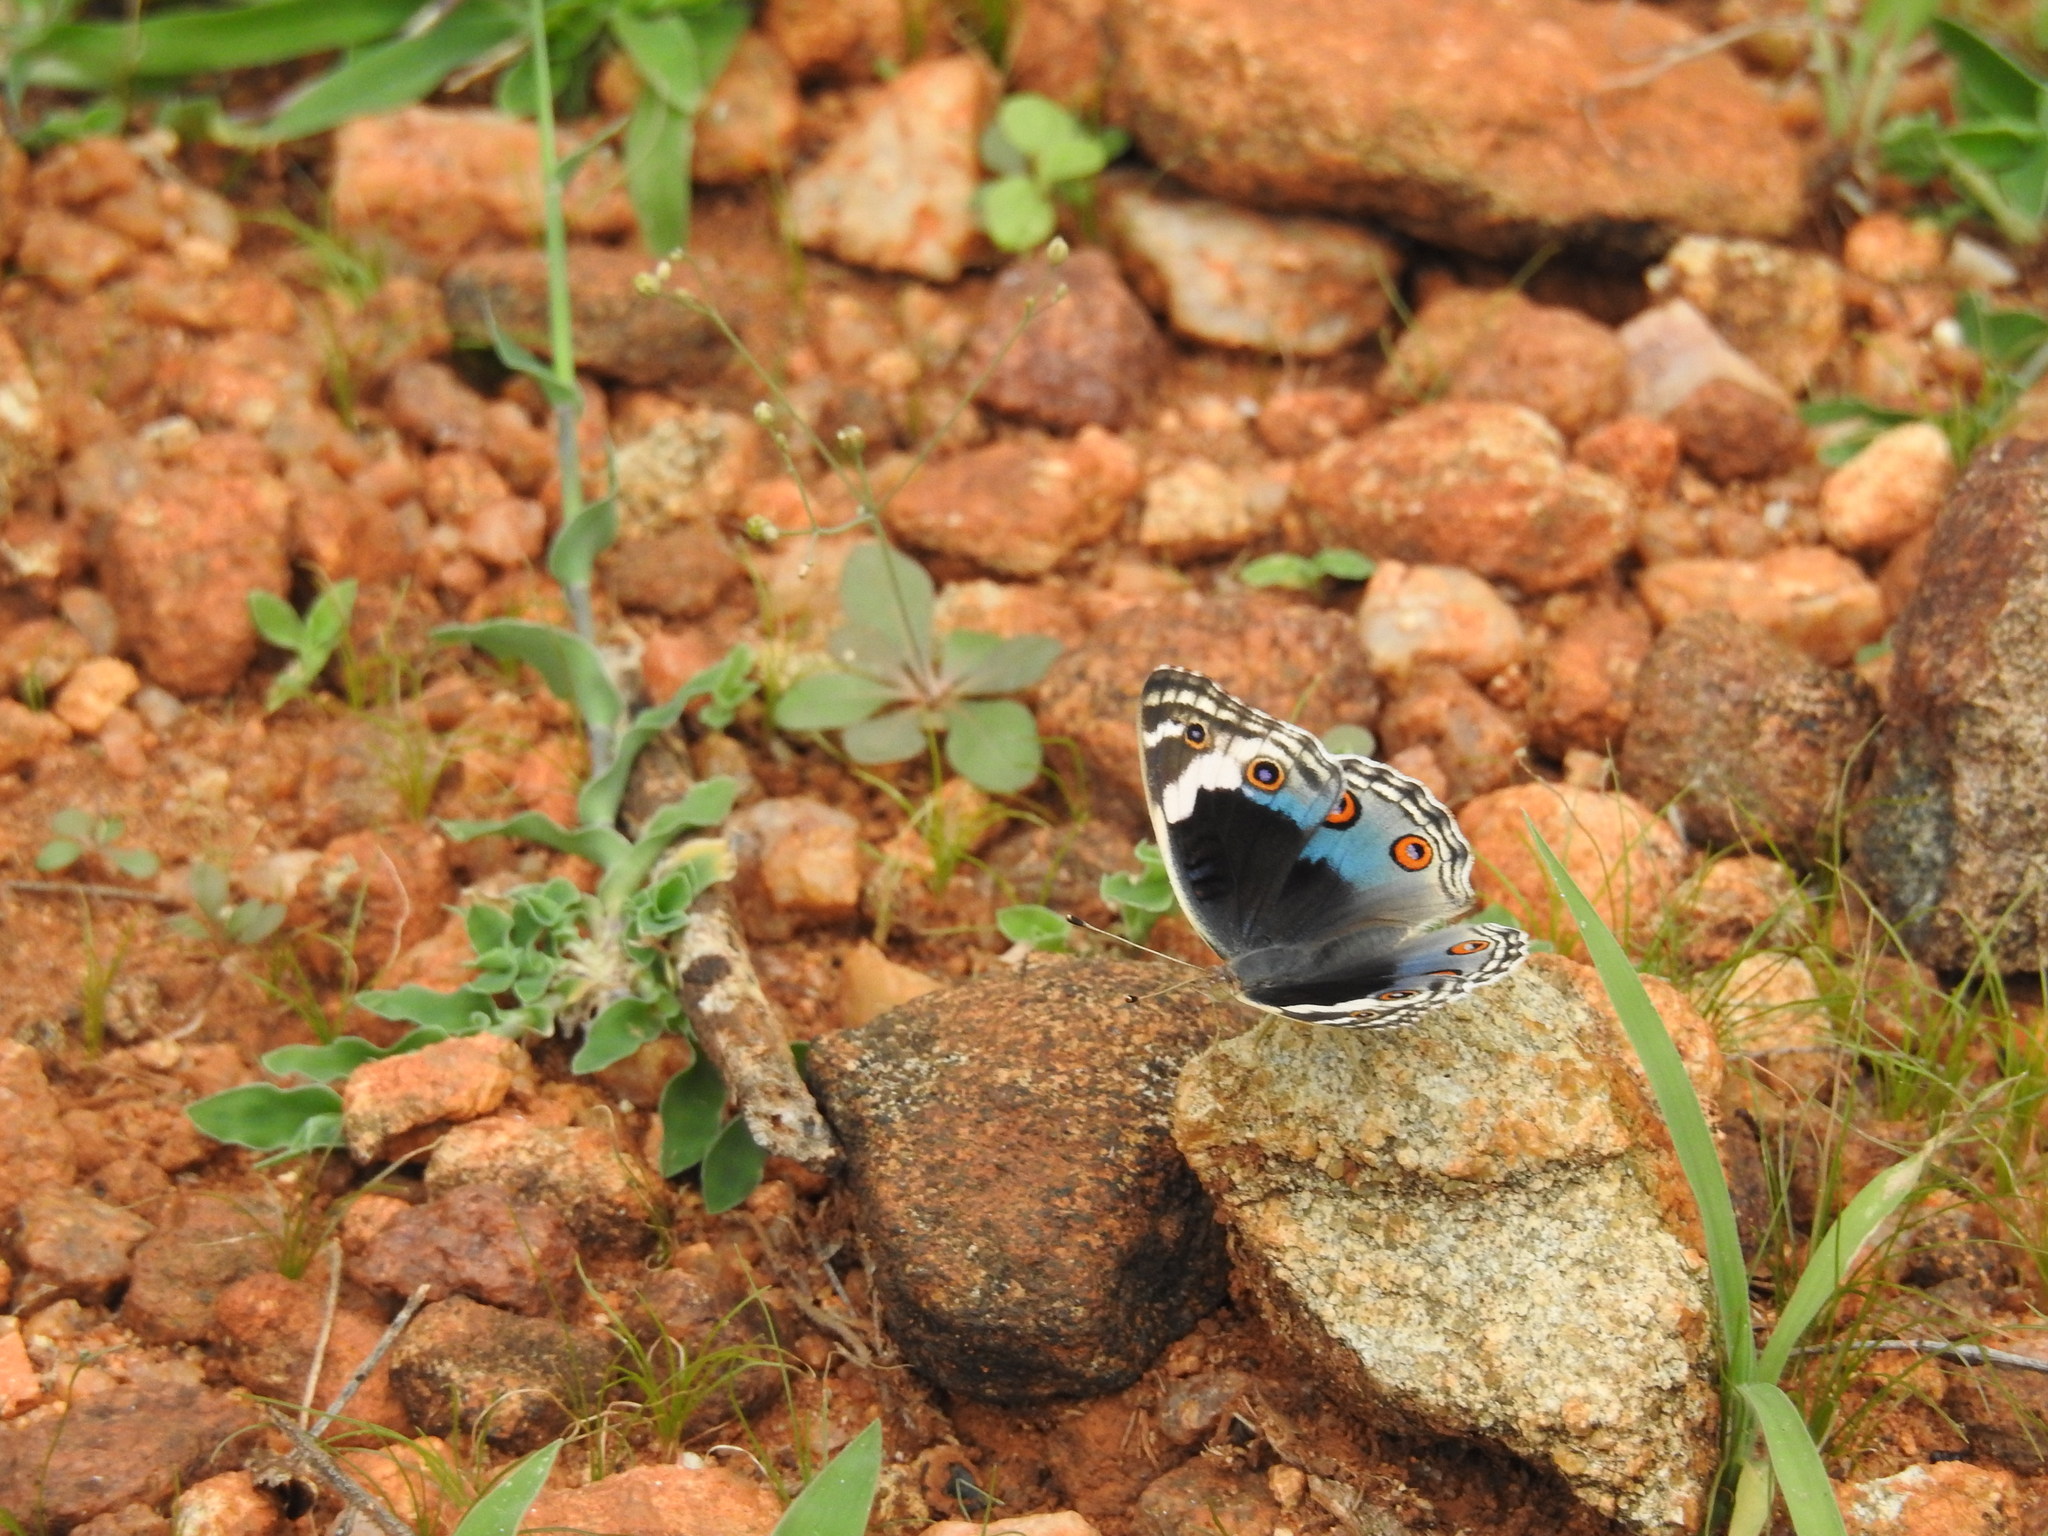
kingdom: Animalia
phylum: Arthropoda
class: Insecta
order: Lepidoptera
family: Nymphalidae
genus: Junonia
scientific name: Junonia orithya
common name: Blue pansy
